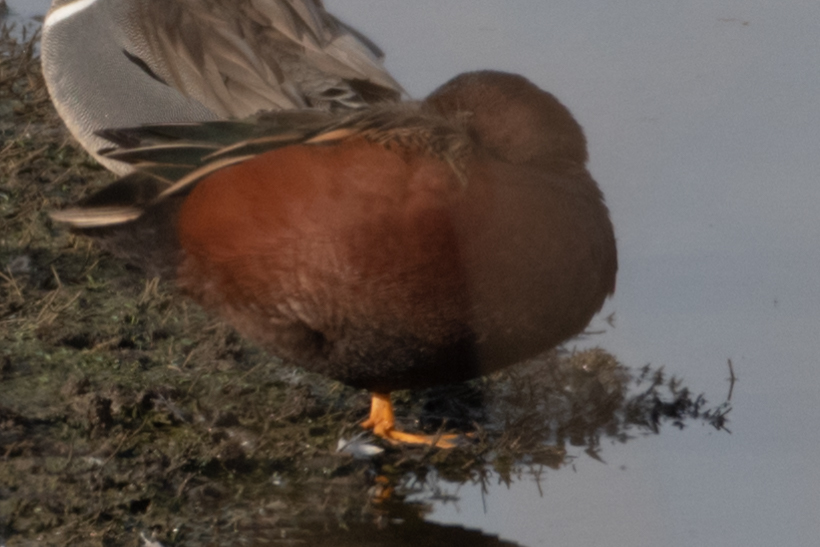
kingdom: Animalia
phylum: Chordata
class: Aves
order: Anseriformes
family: Anatidae
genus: Spatula
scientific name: Spatula cyanoptera
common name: Cinnamon teal
